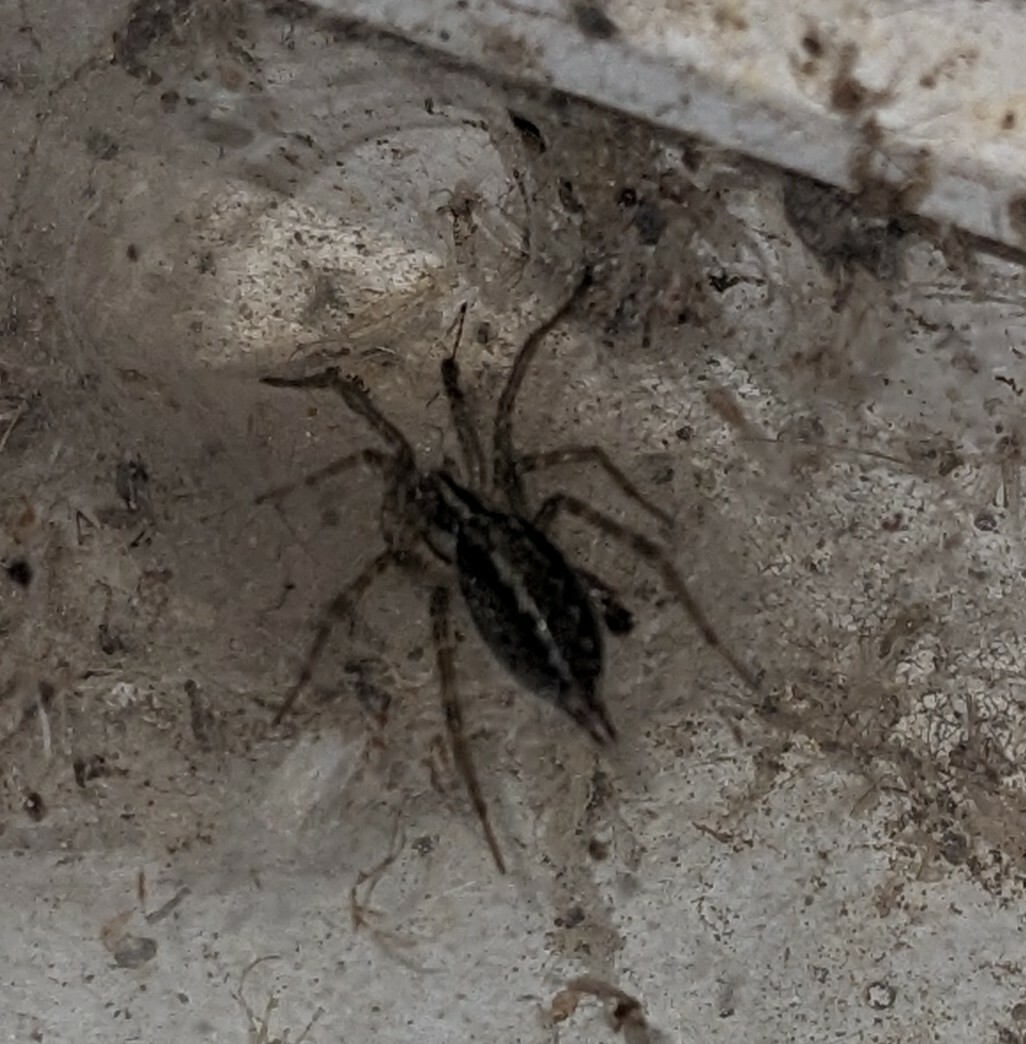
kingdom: Animalia
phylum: Arthropoda
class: Arachnida
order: Araneae
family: Agelenidae
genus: Agelenopsis
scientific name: Agelenopsis
